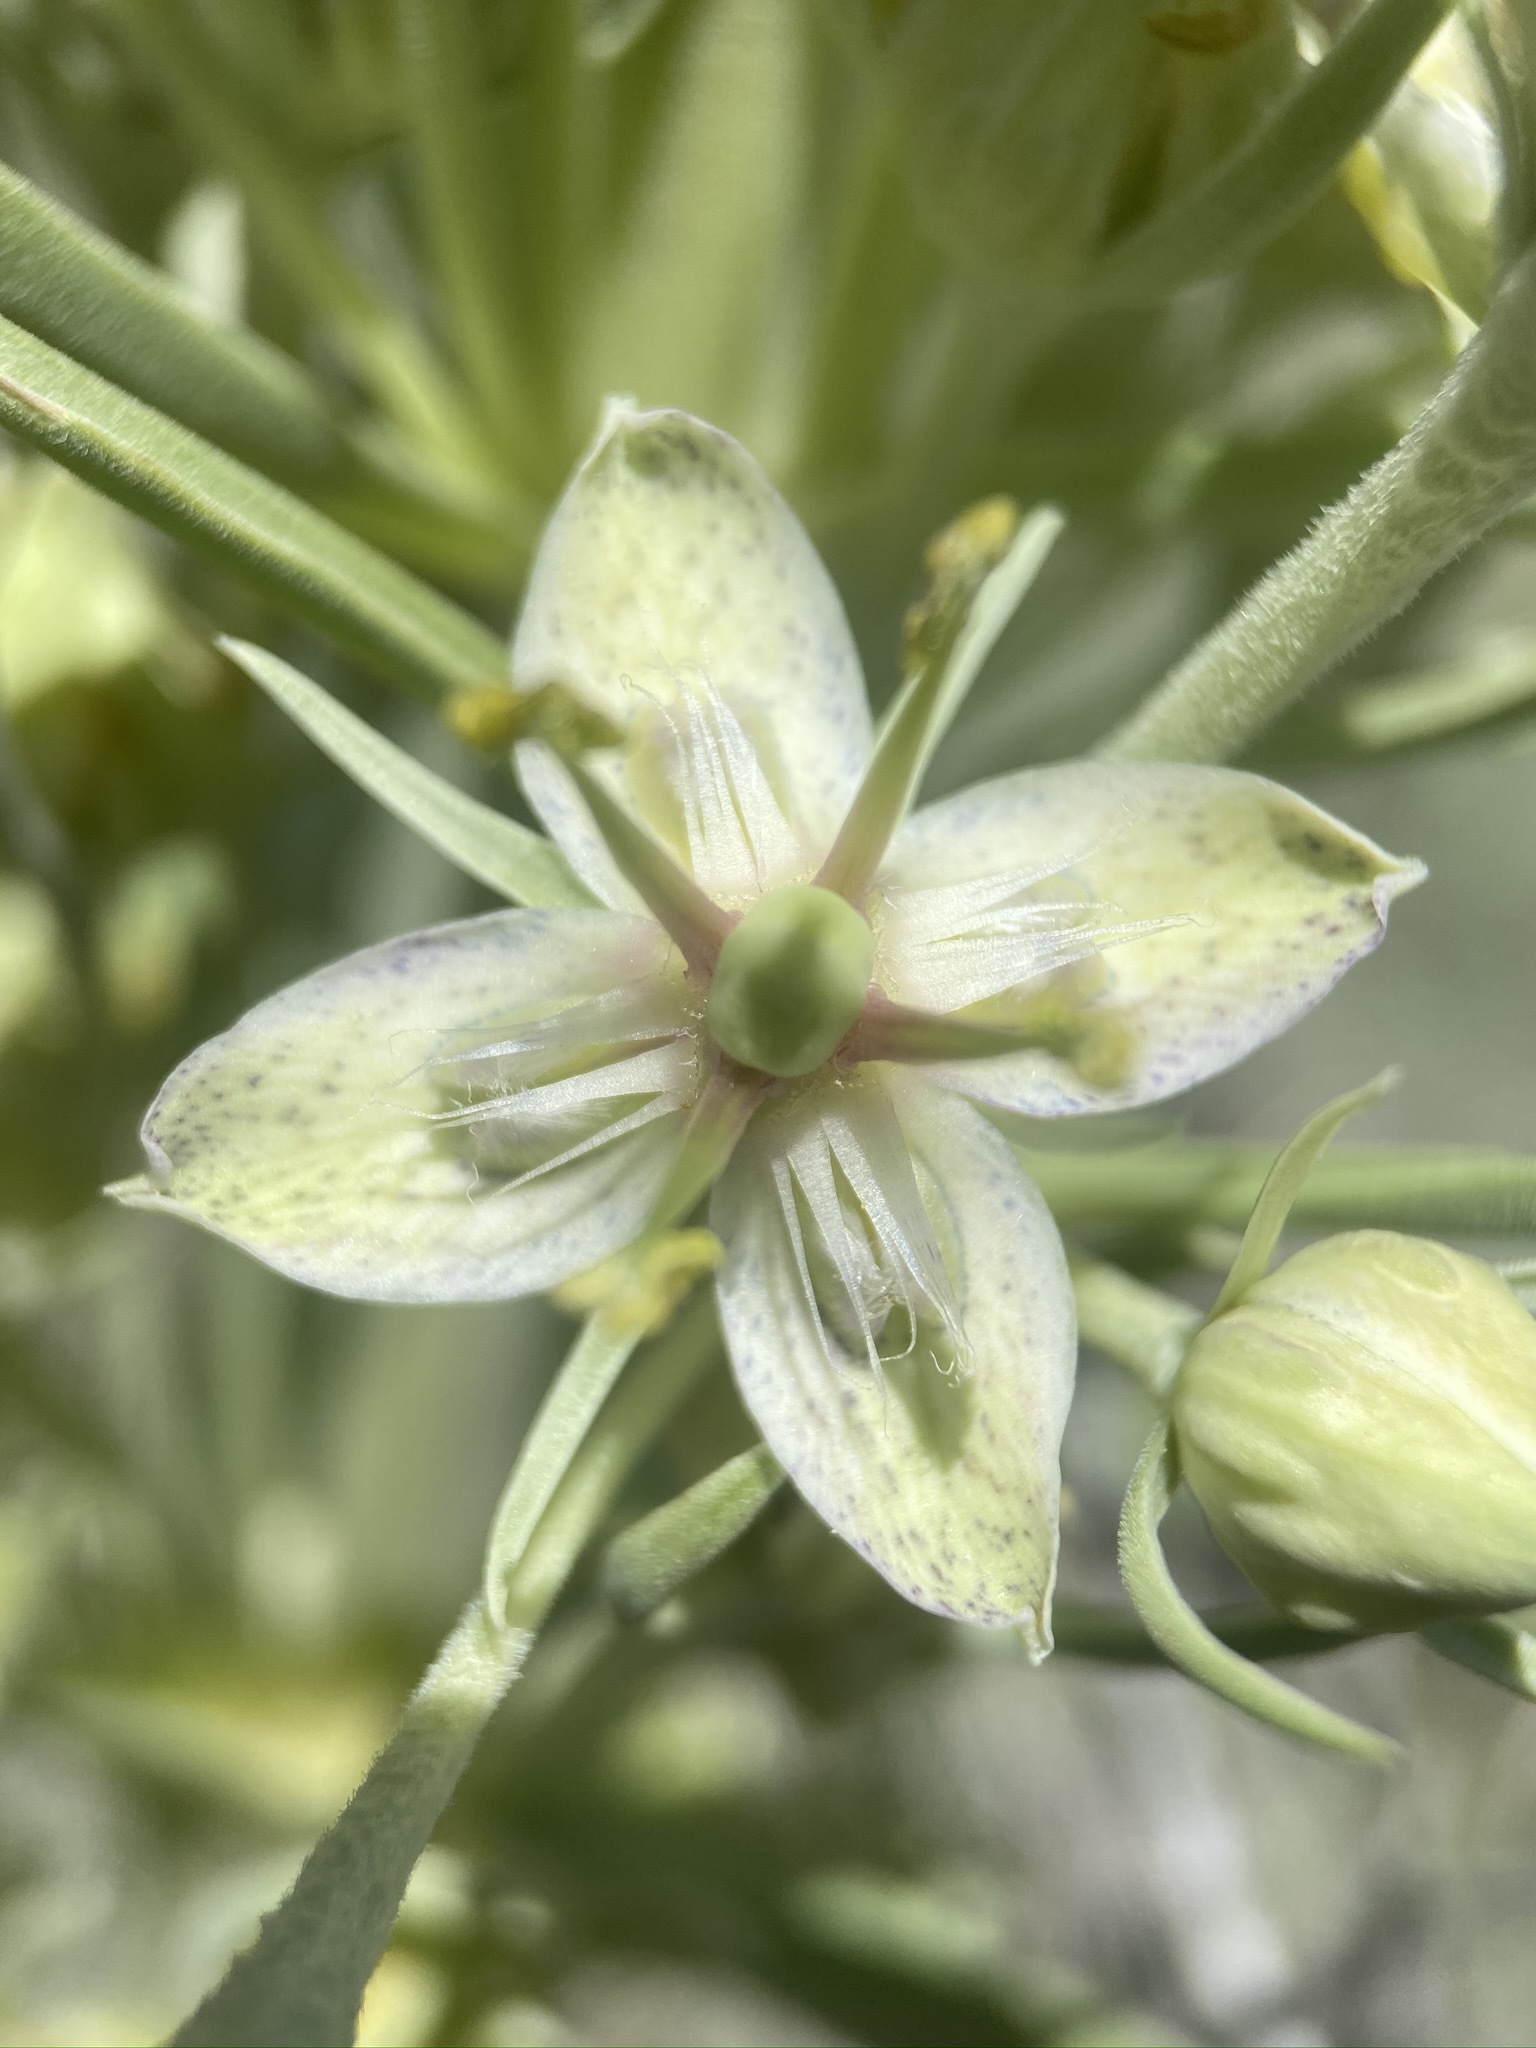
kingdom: Plantae
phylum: Tracheophyta
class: Magnoliopsida
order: Gentianales
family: Gentianaceae
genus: Frasera
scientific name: Frasera speciosa
